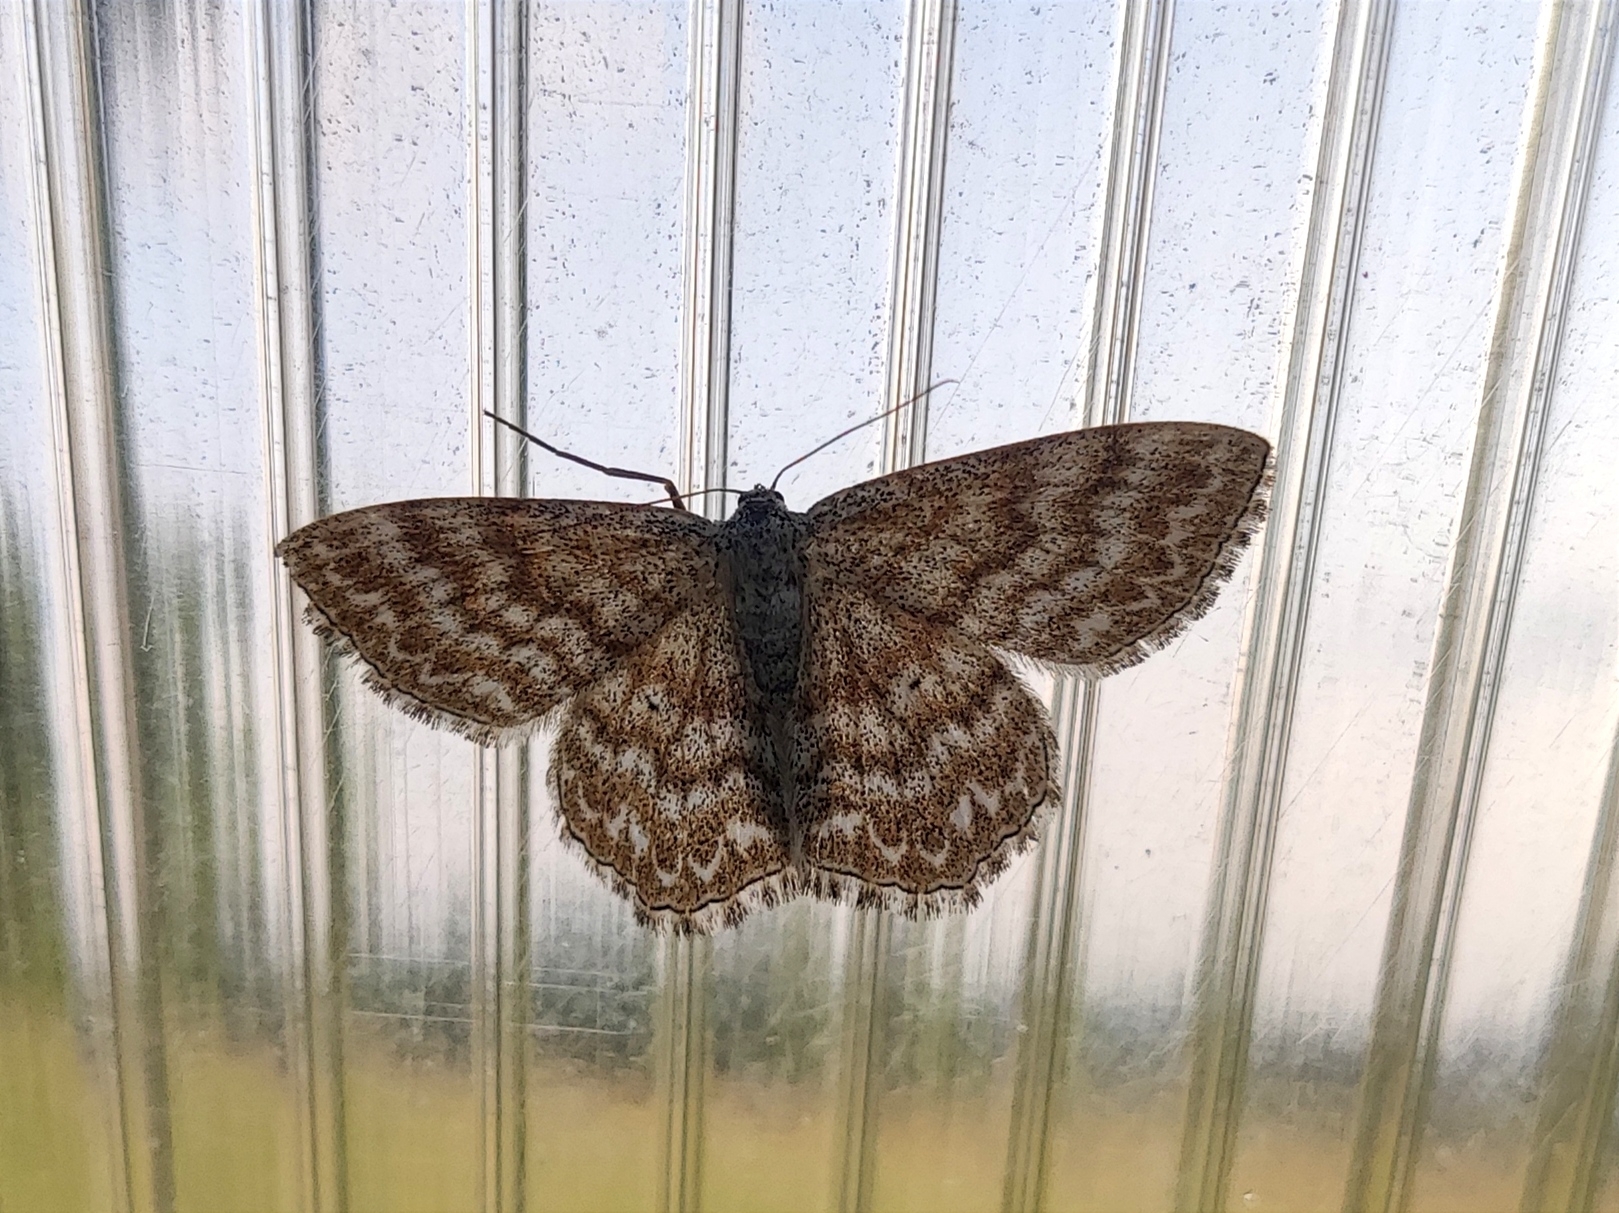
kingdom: Animalia
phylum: Arthropoda
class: Insecta
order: Lepidoptera
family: Geometridae
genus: Scopula
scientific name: Scopula immorata
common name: Lewes wave
